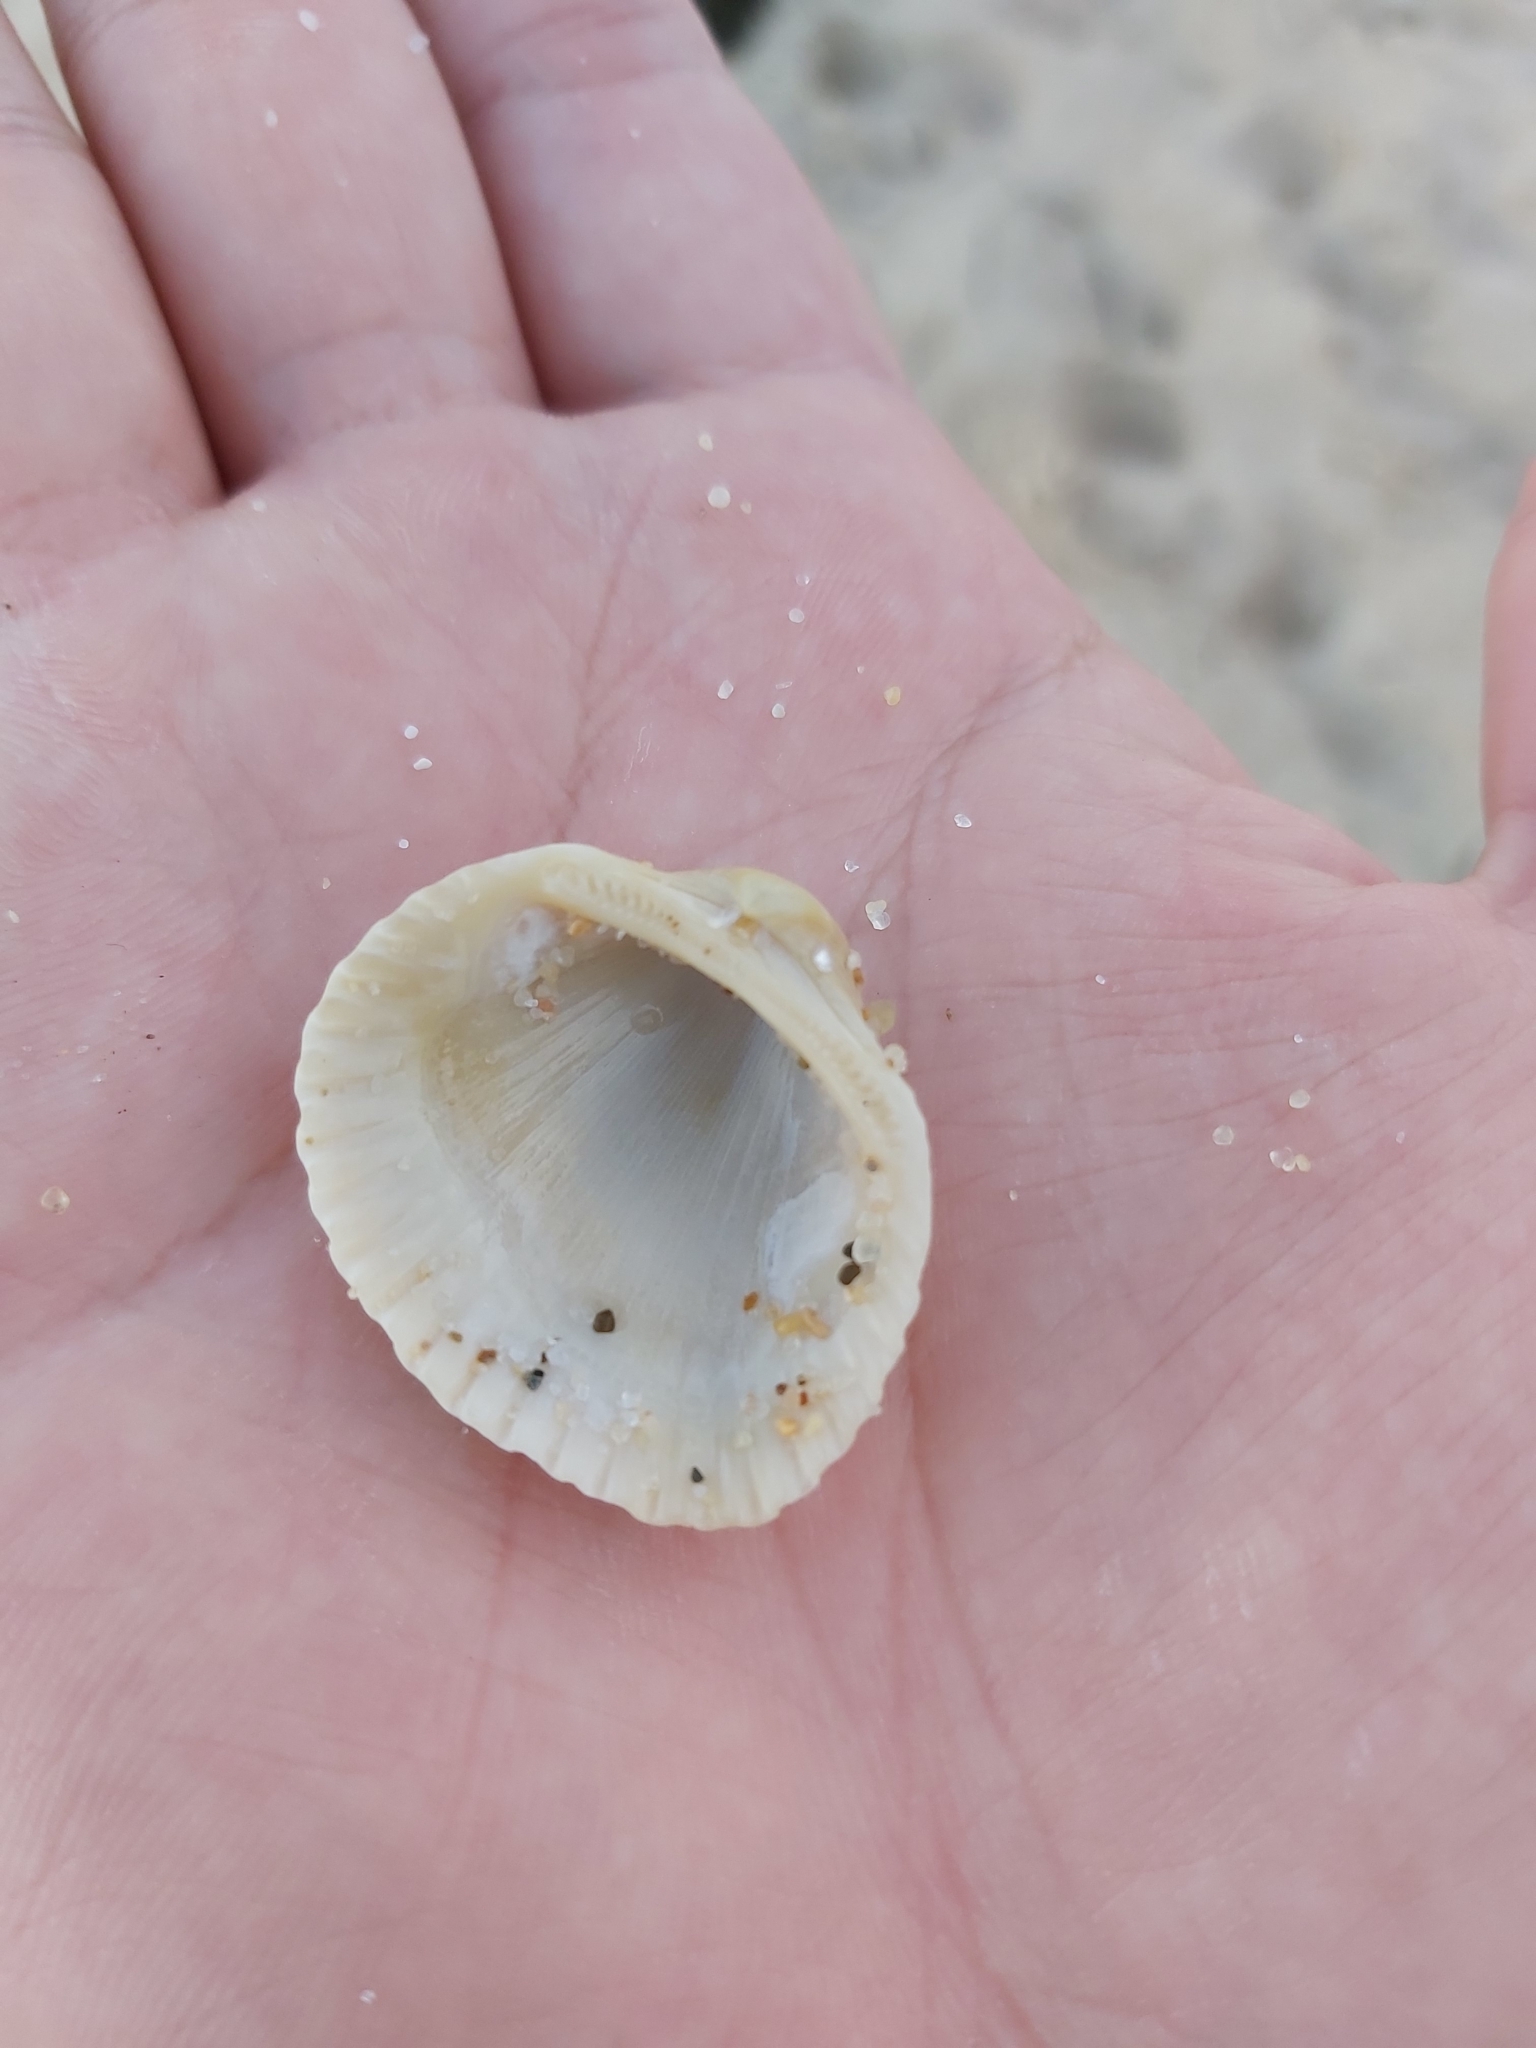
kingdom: Animalia
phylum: Mollusca
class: Bivalvia
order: Arcida
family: Arcidae
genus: Anadara
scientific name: Anadara trapezia
